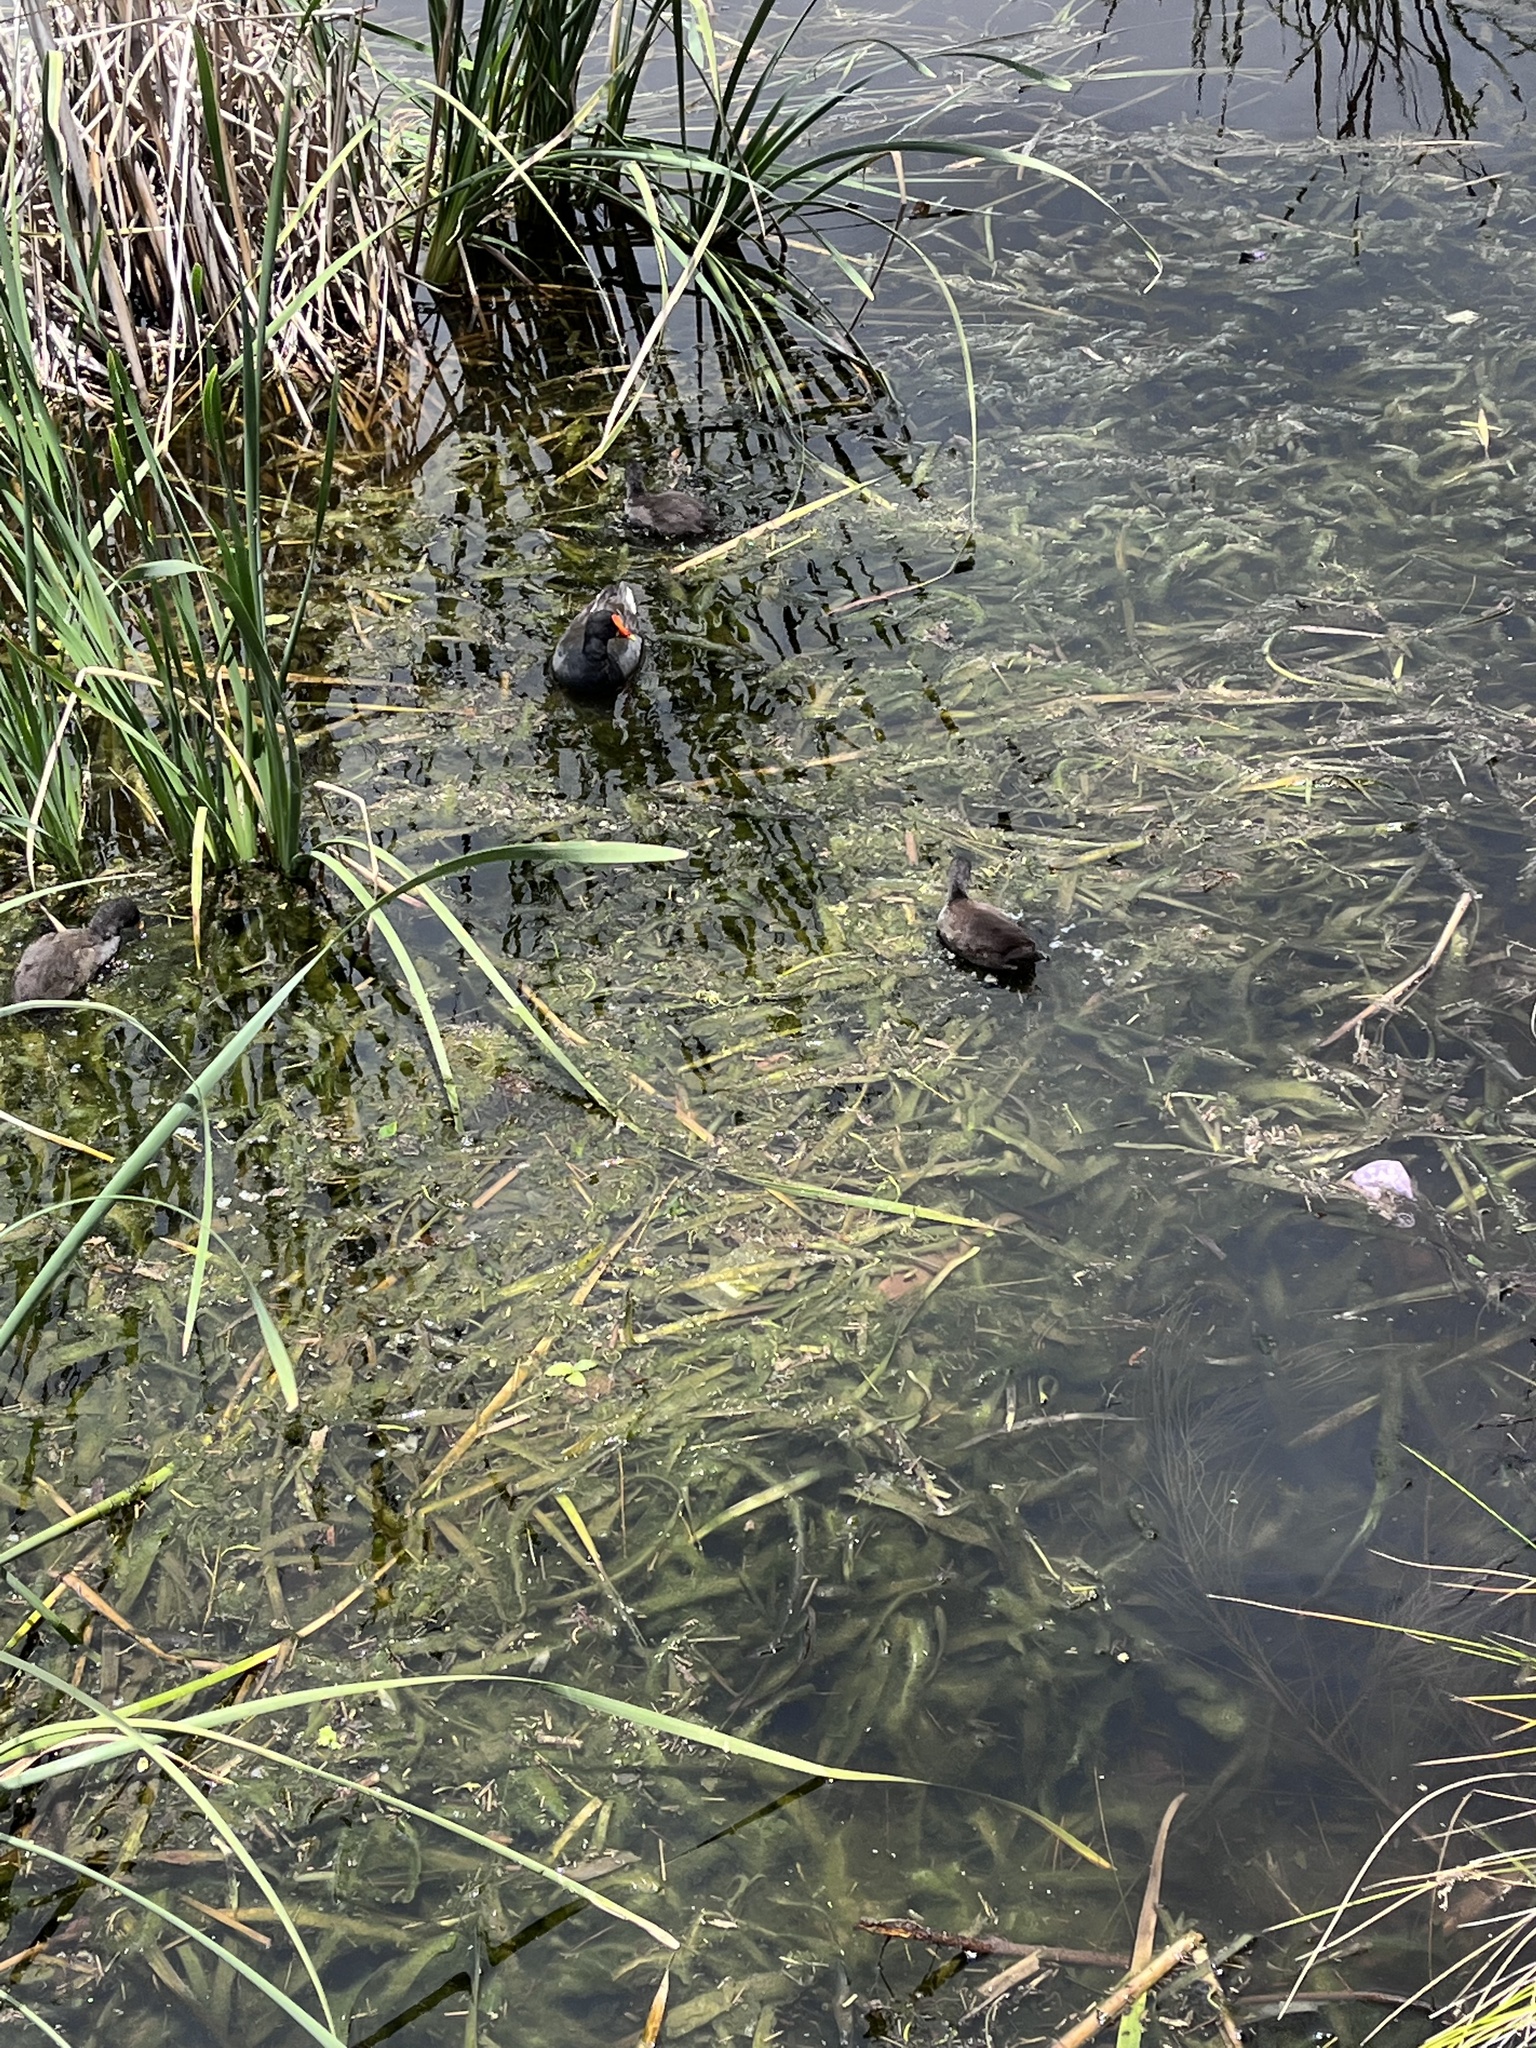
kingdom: Animalia
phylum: Chordata
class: Aves
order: Gruiformes
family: Rallidae
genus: Gallinula
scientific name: Gallinula tenebrosa
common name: Dusky moorhen
